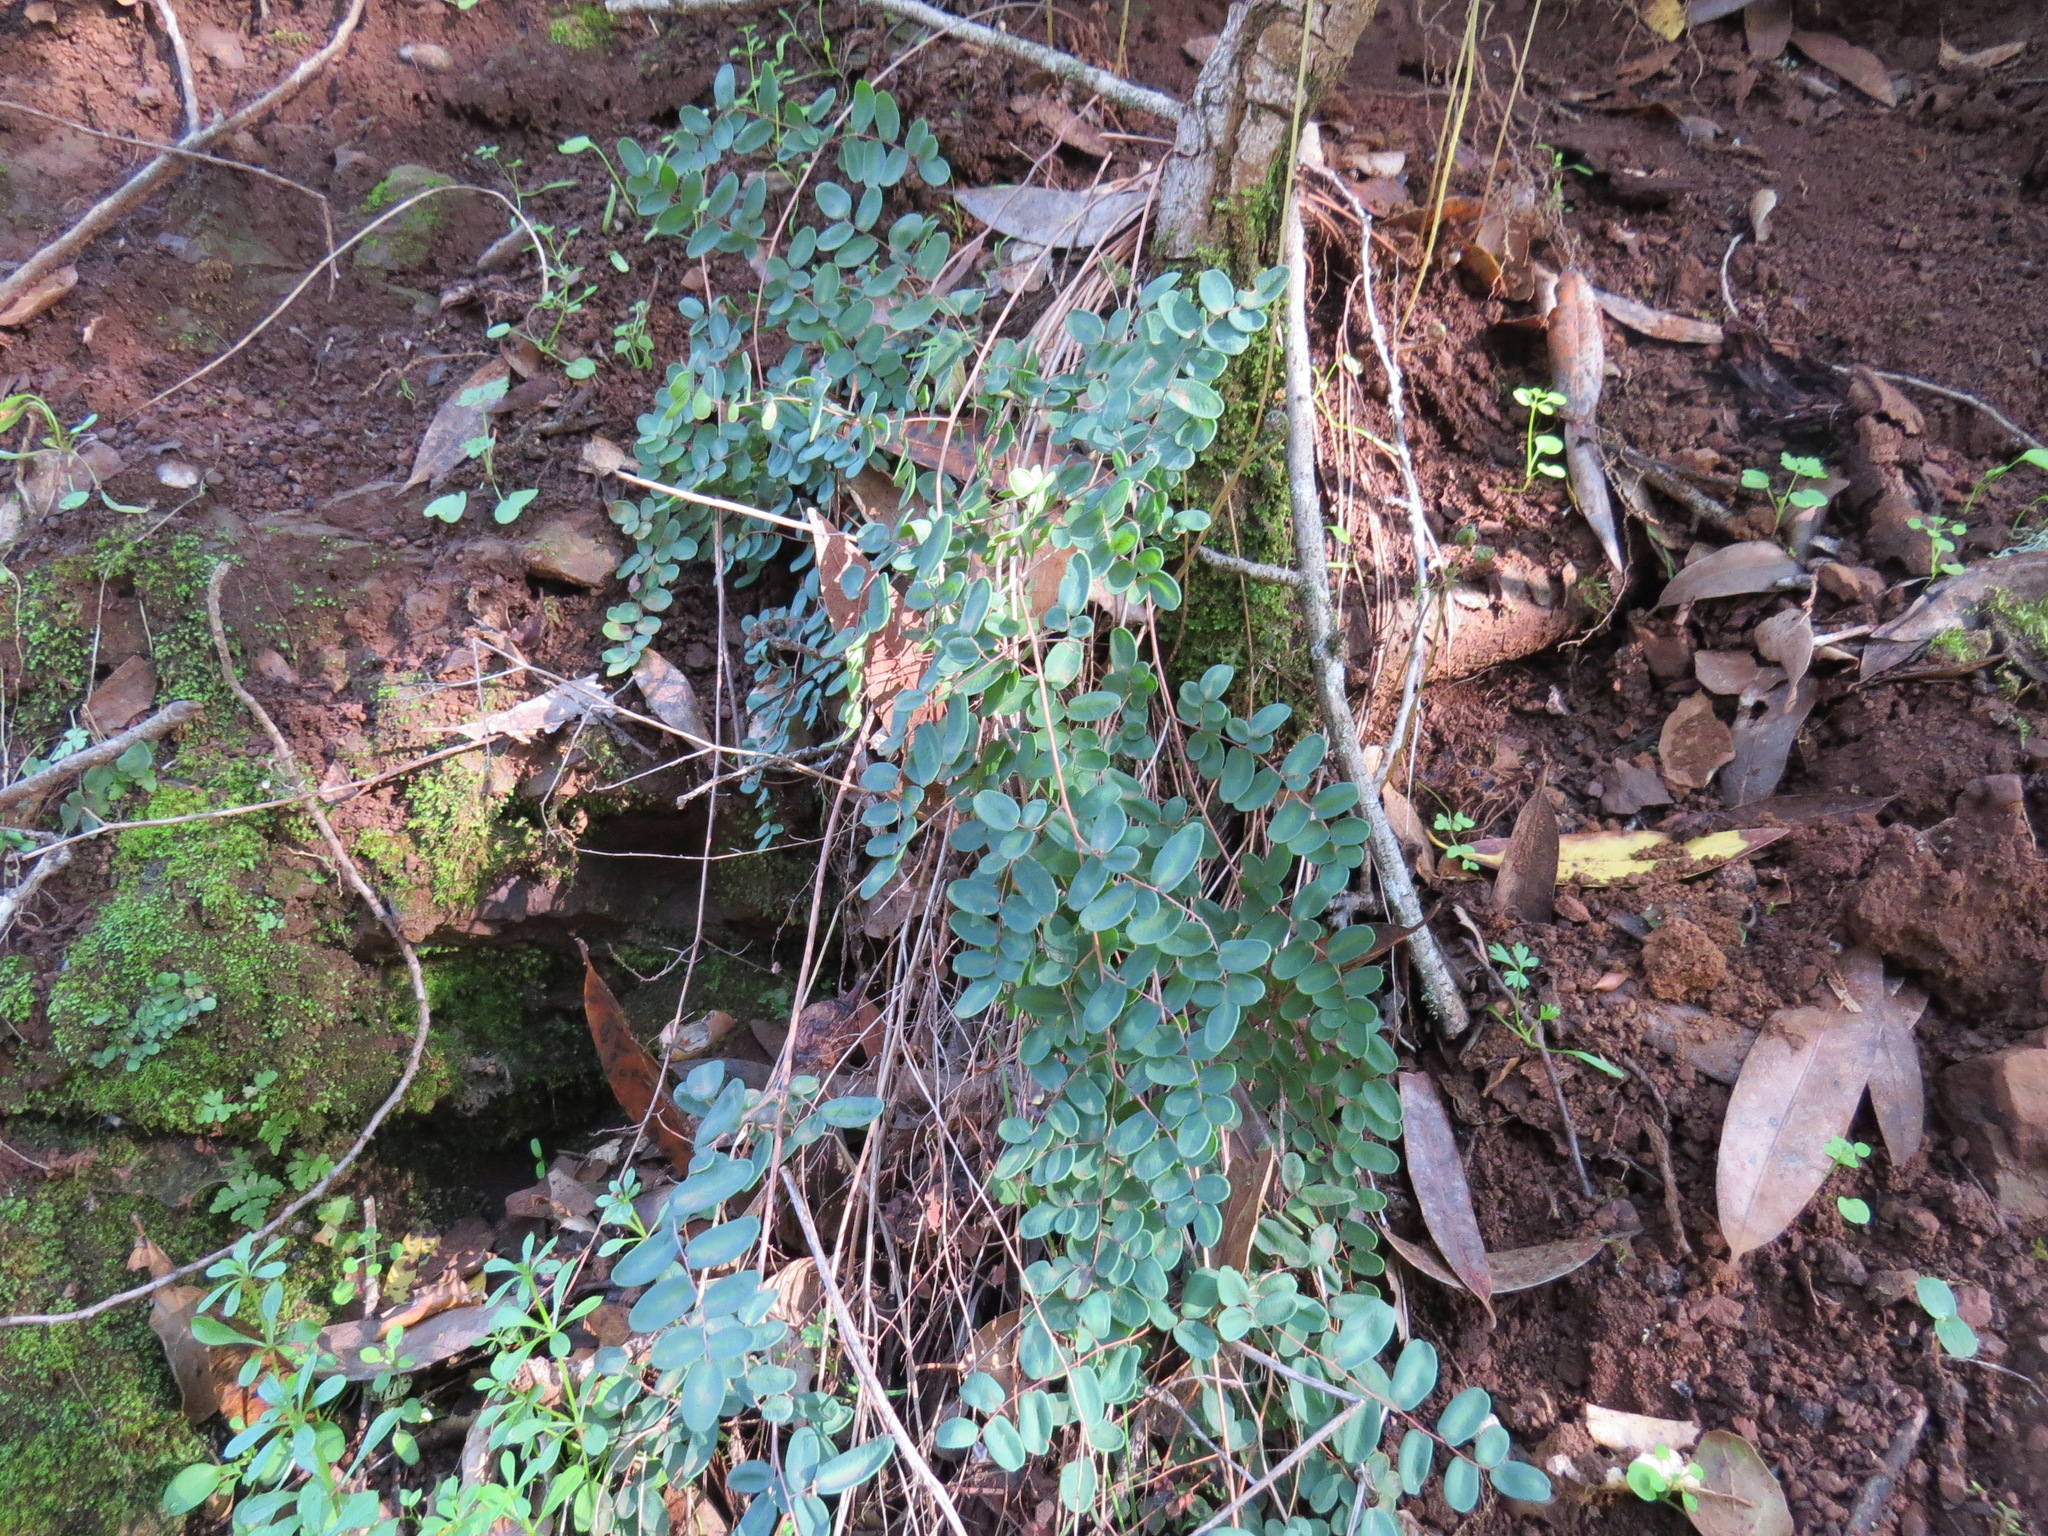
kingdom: Plantae
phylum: Tracheophyta
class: Polypodiopsida
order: Polypodiales
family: Pteridaceae
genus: Pellaea
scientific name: Pellaea andromedifolia
